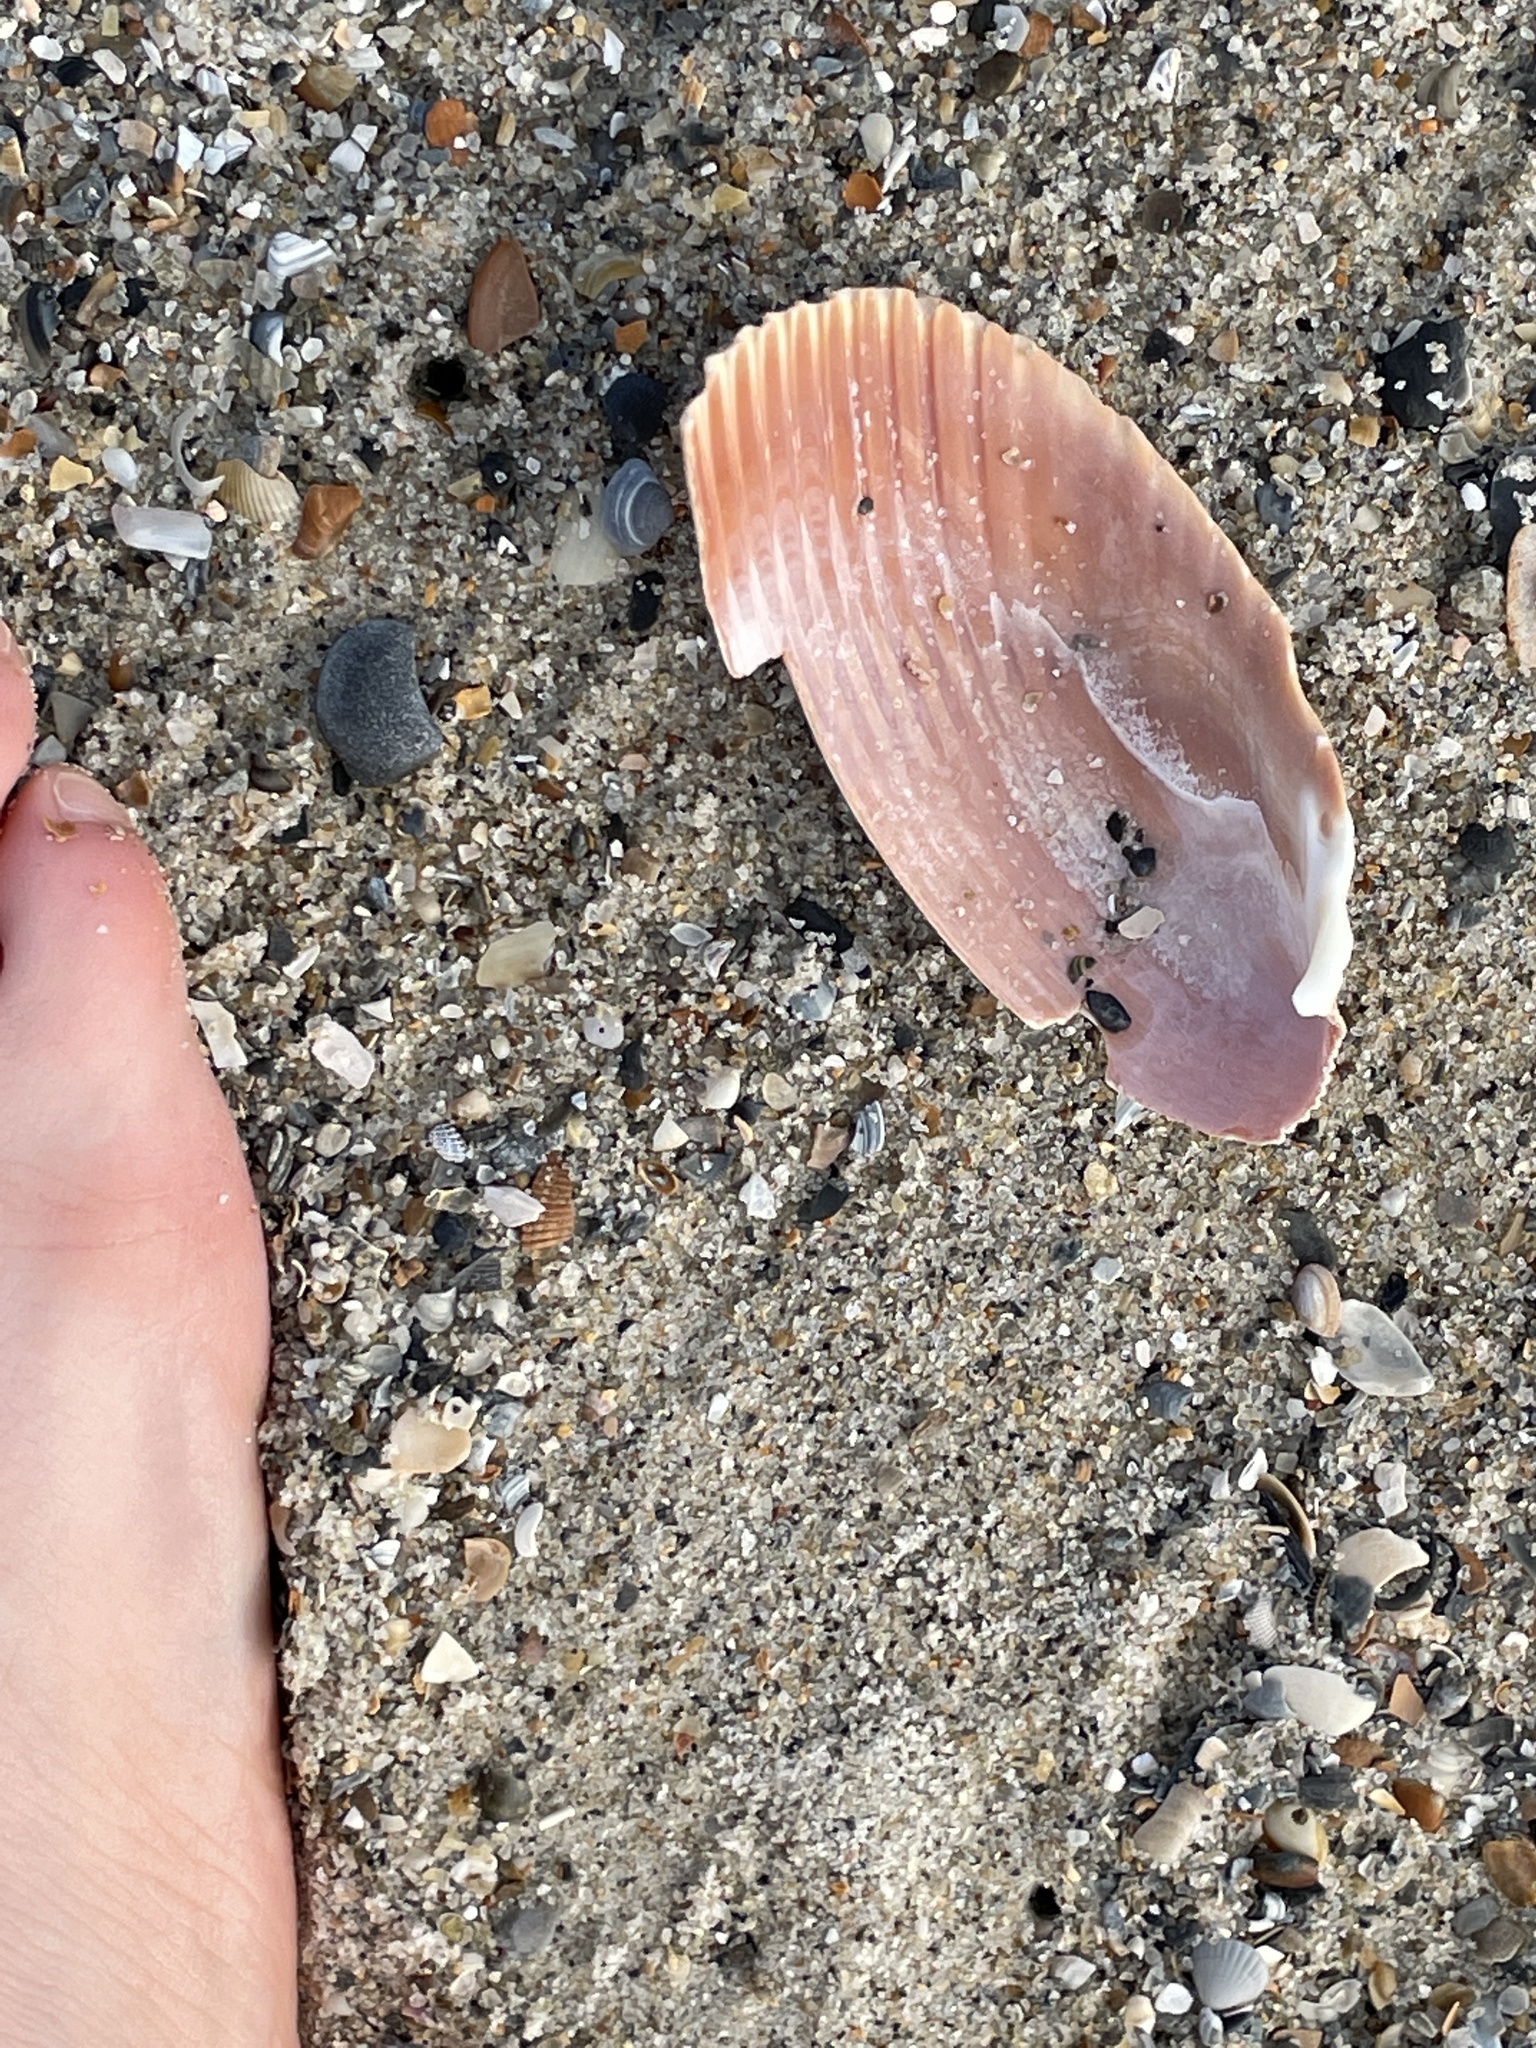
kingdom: Animalia
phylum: Mollusca
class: Bivalvia
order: Cardiida
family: Cardiidae
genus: Dinocardium
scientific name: Dinocardium robustum
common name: Atlantic giant cockle
